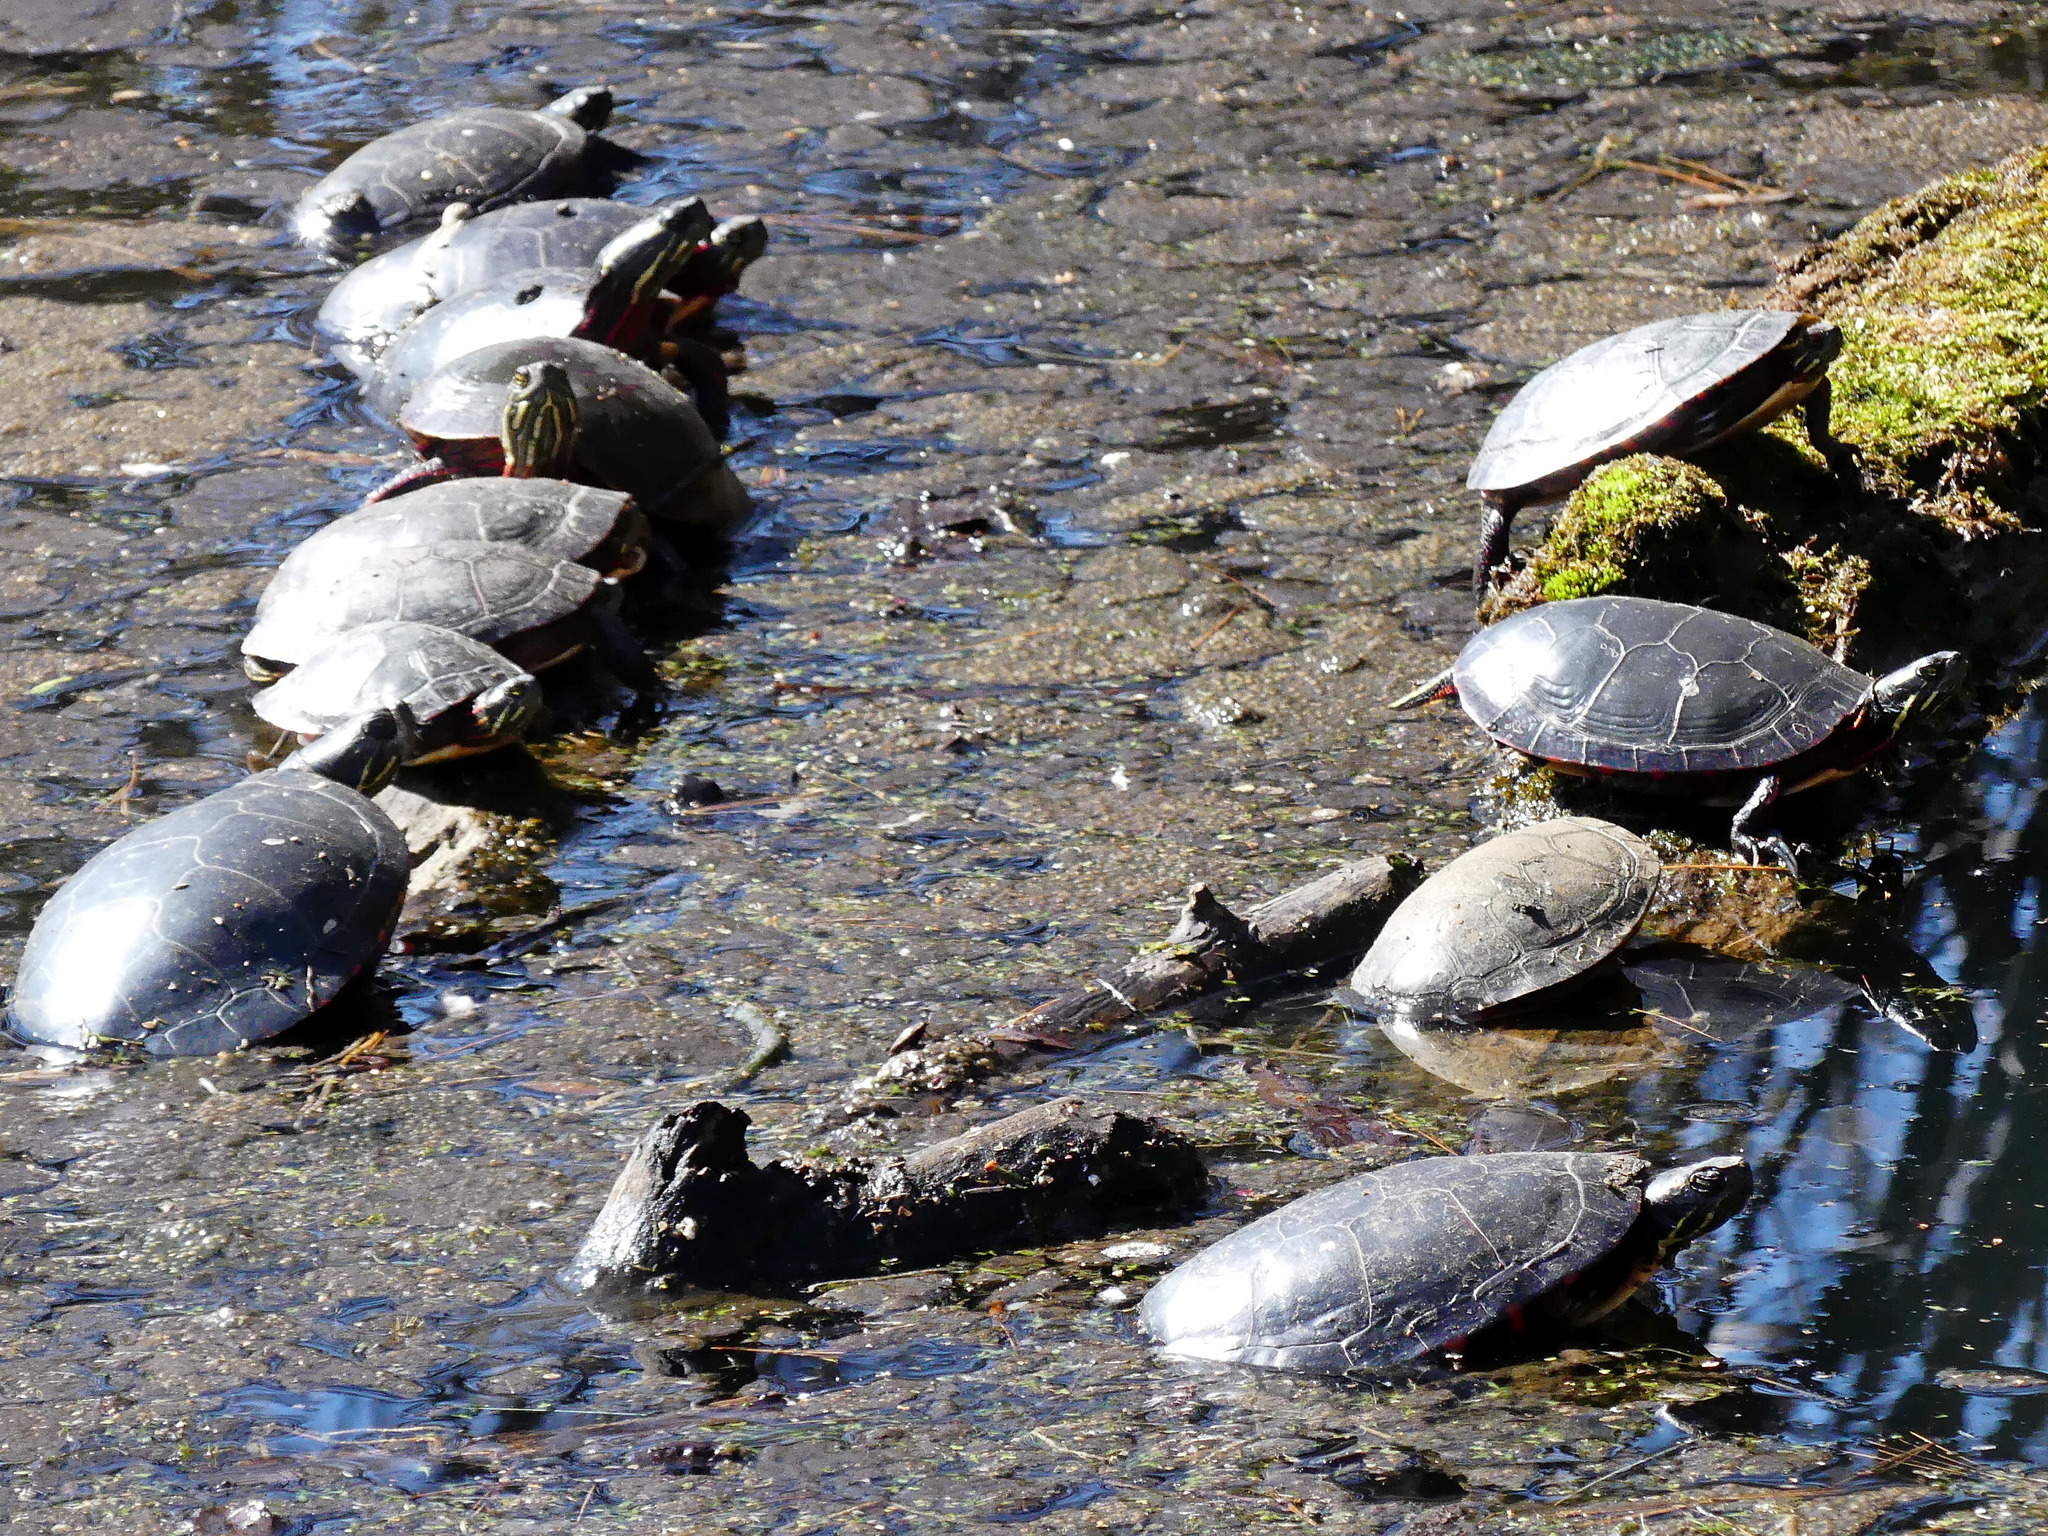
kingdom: Animalia
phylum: Chordata
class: Testudines
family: Emydidae
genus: Chrysemys
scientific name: Chrysemys picta
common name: Painted turtle
